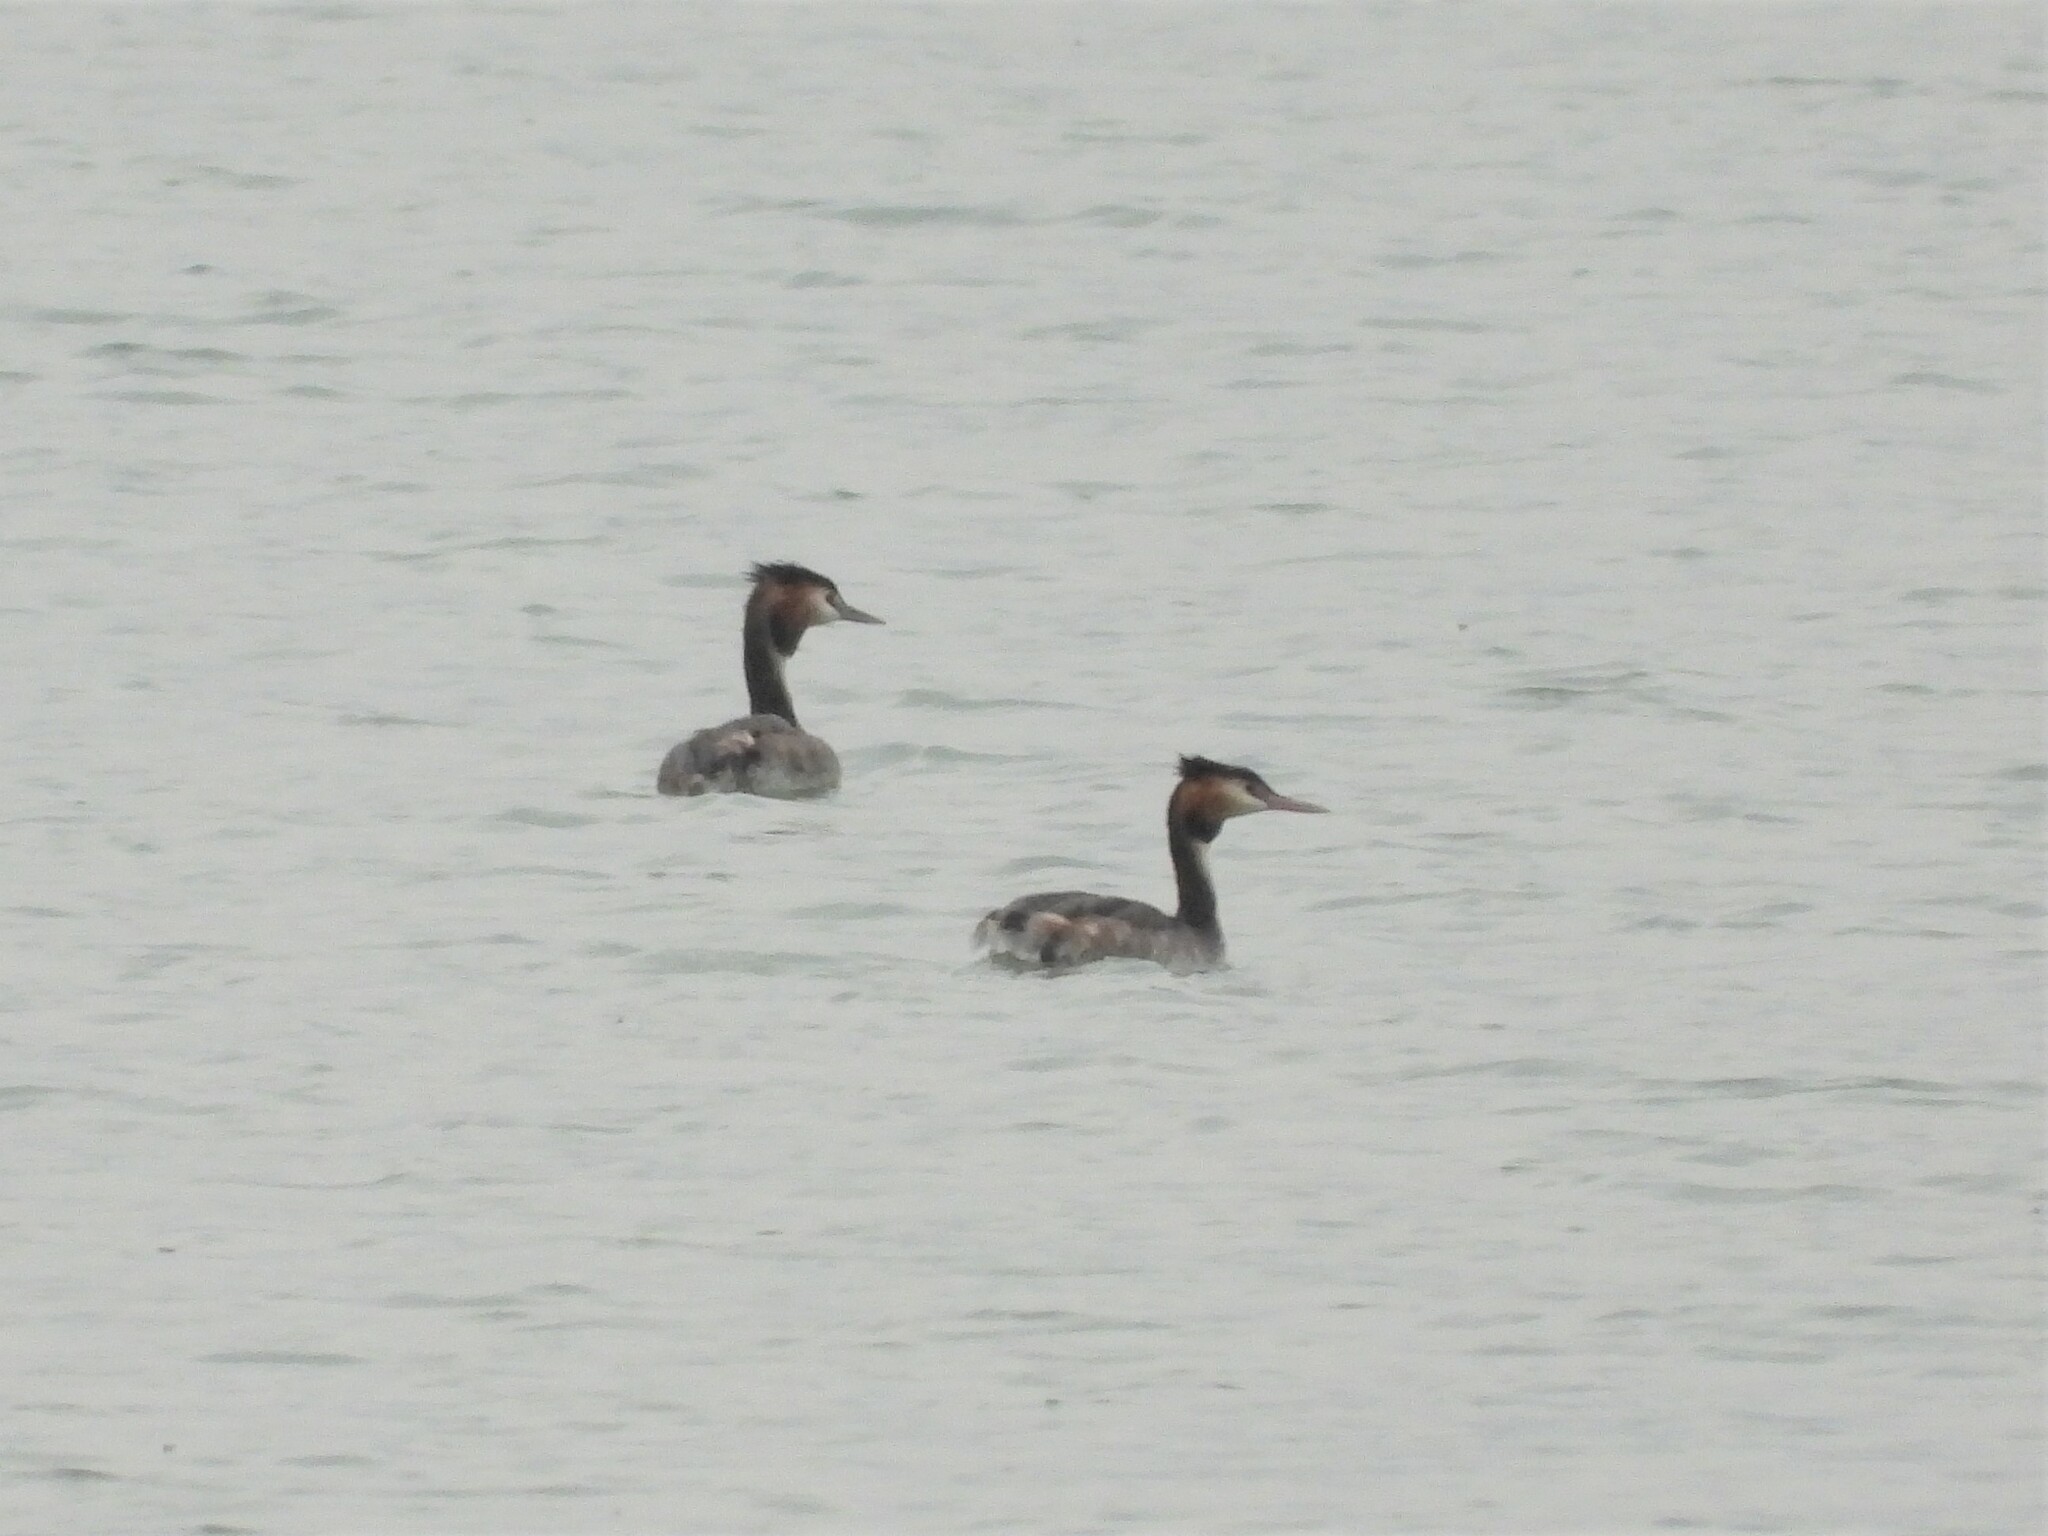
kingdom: Animalia
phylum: Chordata
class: Aves
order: Podicipediformes
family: Podicipedidae
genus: Podiceps
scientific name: Podiceps cristatus
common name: Great crested grebe
